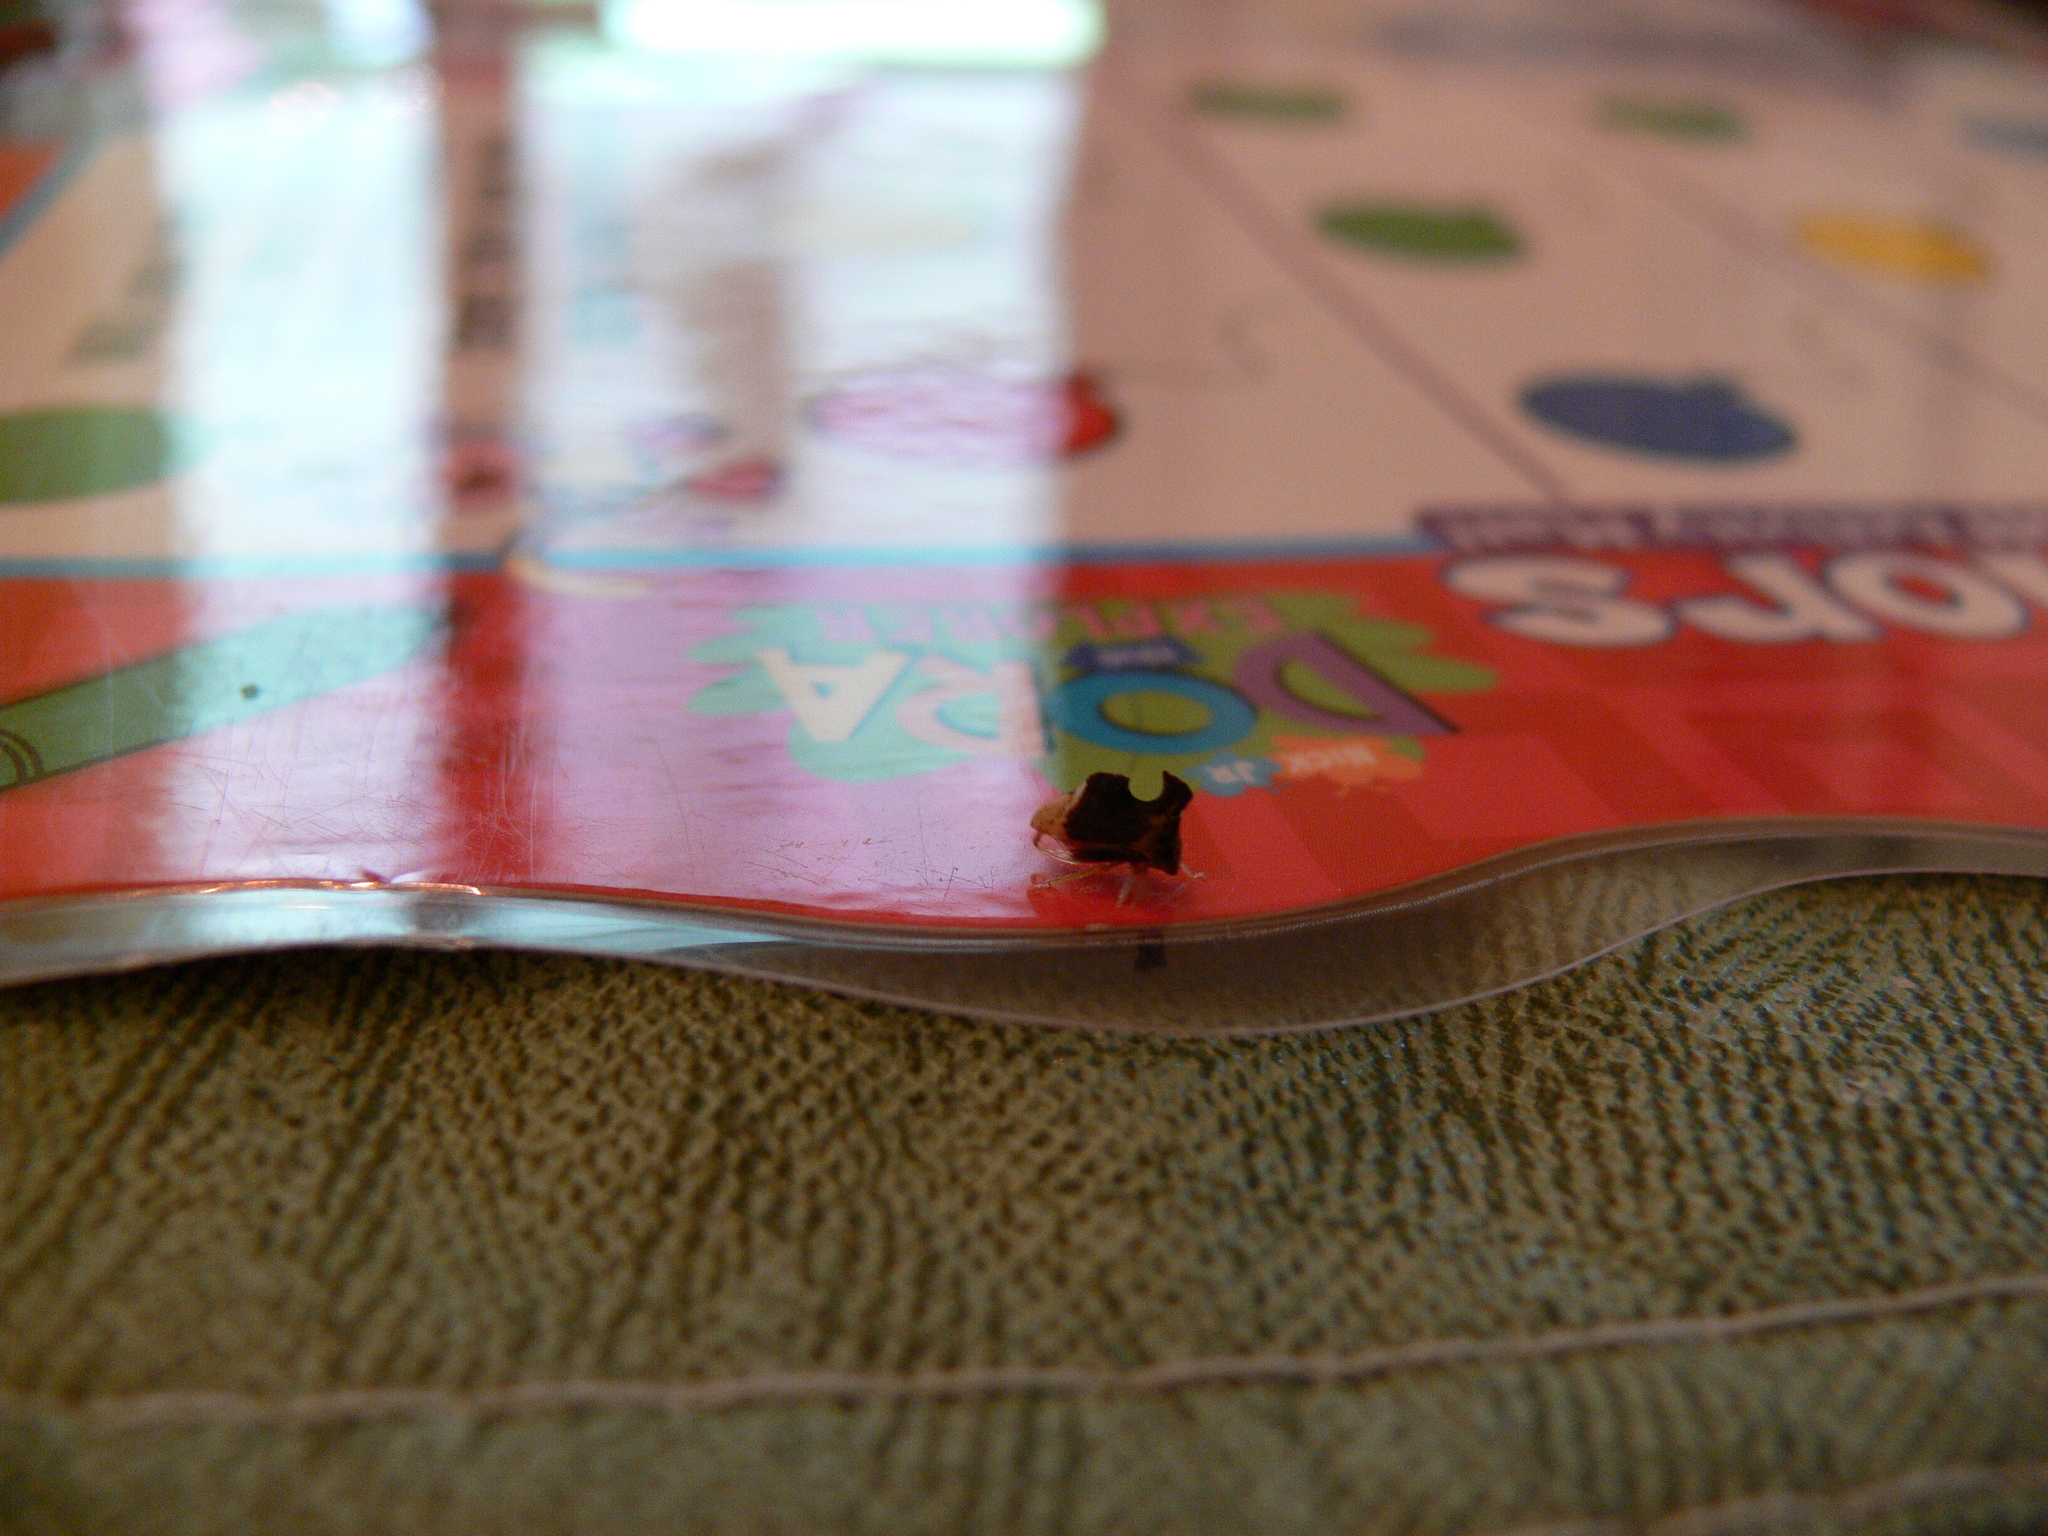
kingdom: Animalia
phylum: Arthropoda
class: Insecta
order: Hemiptera
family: Membracidae
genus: Entylia
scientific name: Entylia carinata
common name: Keeled treehopper
